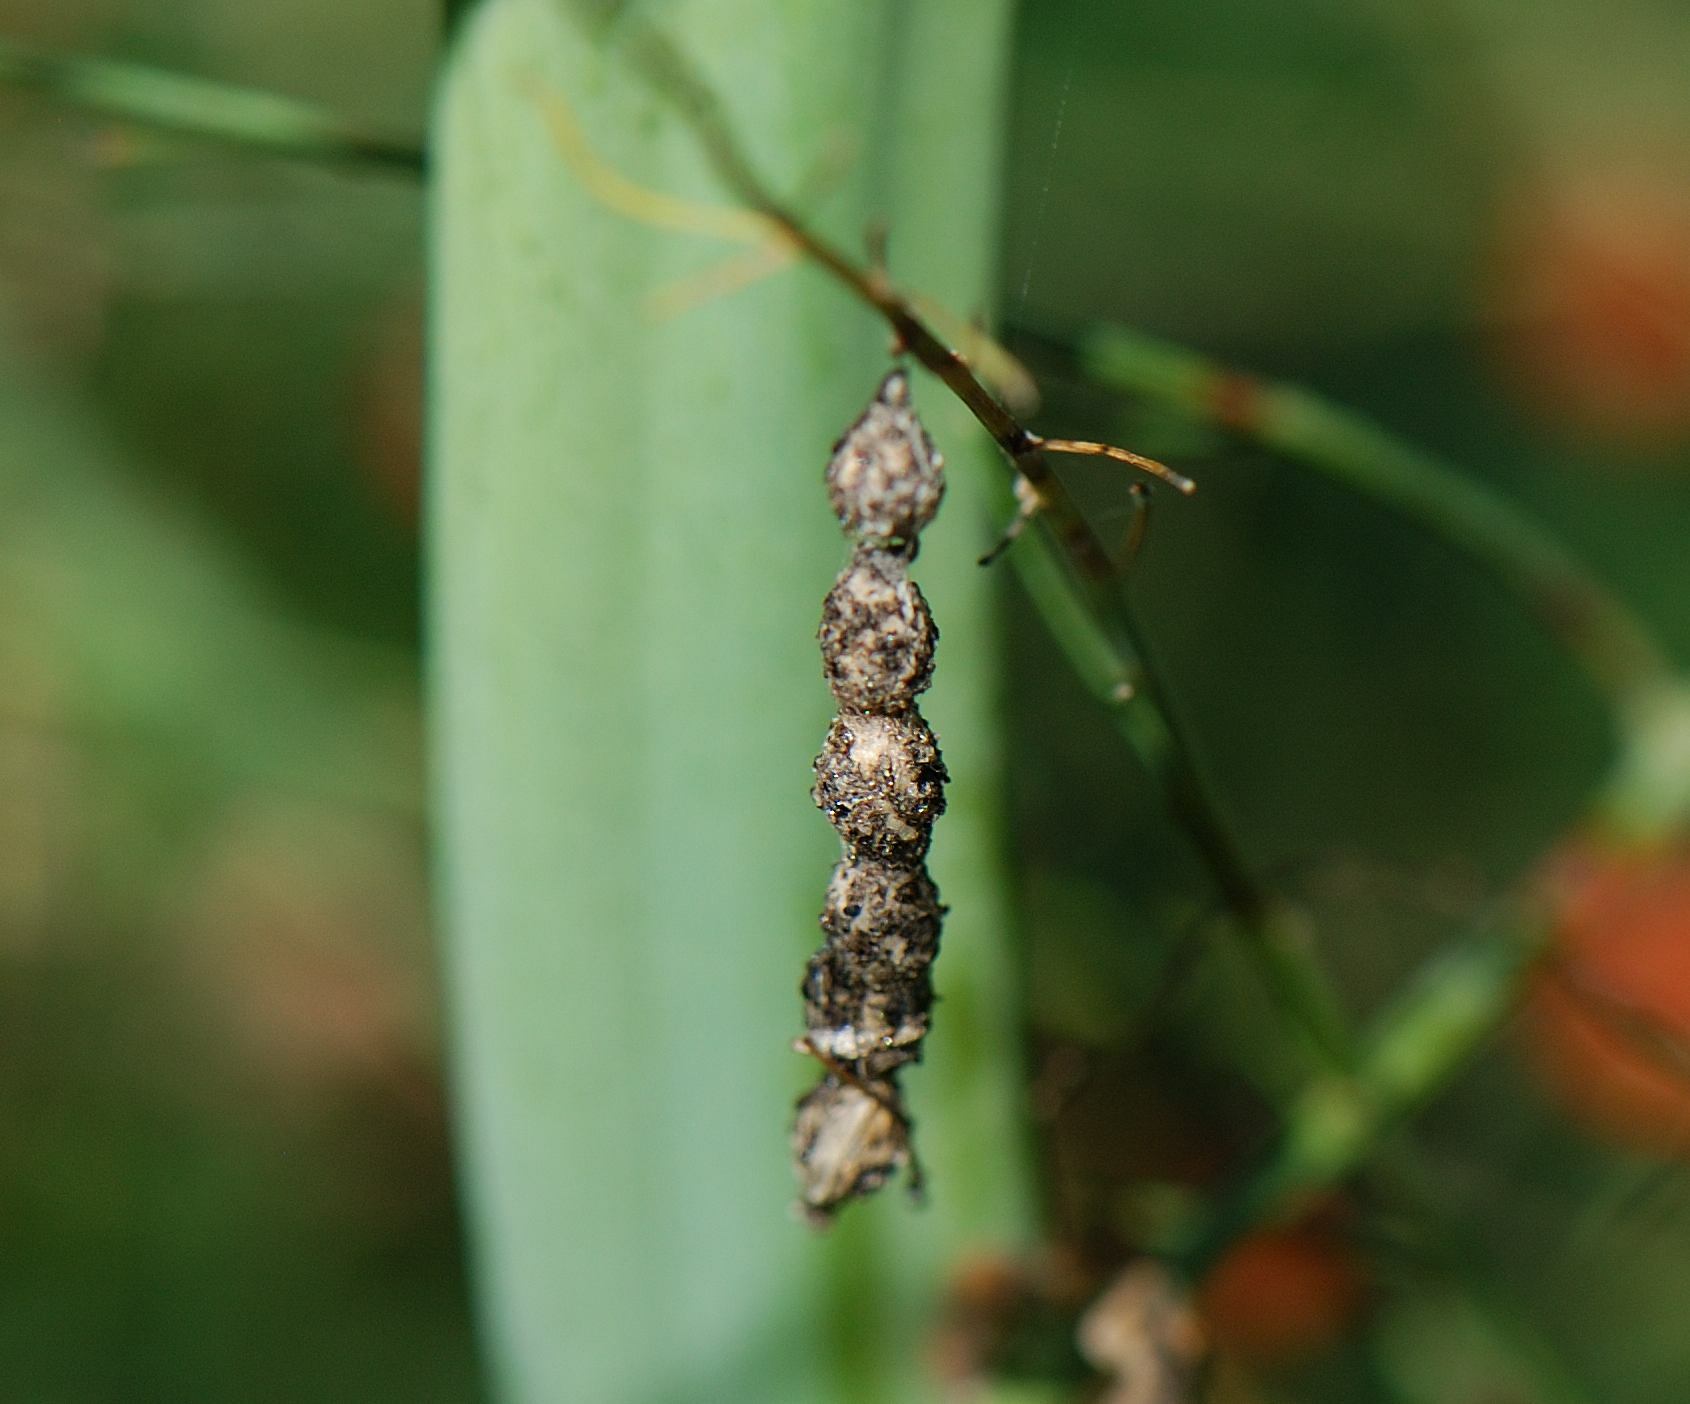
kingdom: Animalia
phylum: Arthropoda
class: Arachnida
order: Araneae
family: Araneidae
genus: Mecynogea
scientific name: Mecynogea lemniscata
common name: Orb weavers
